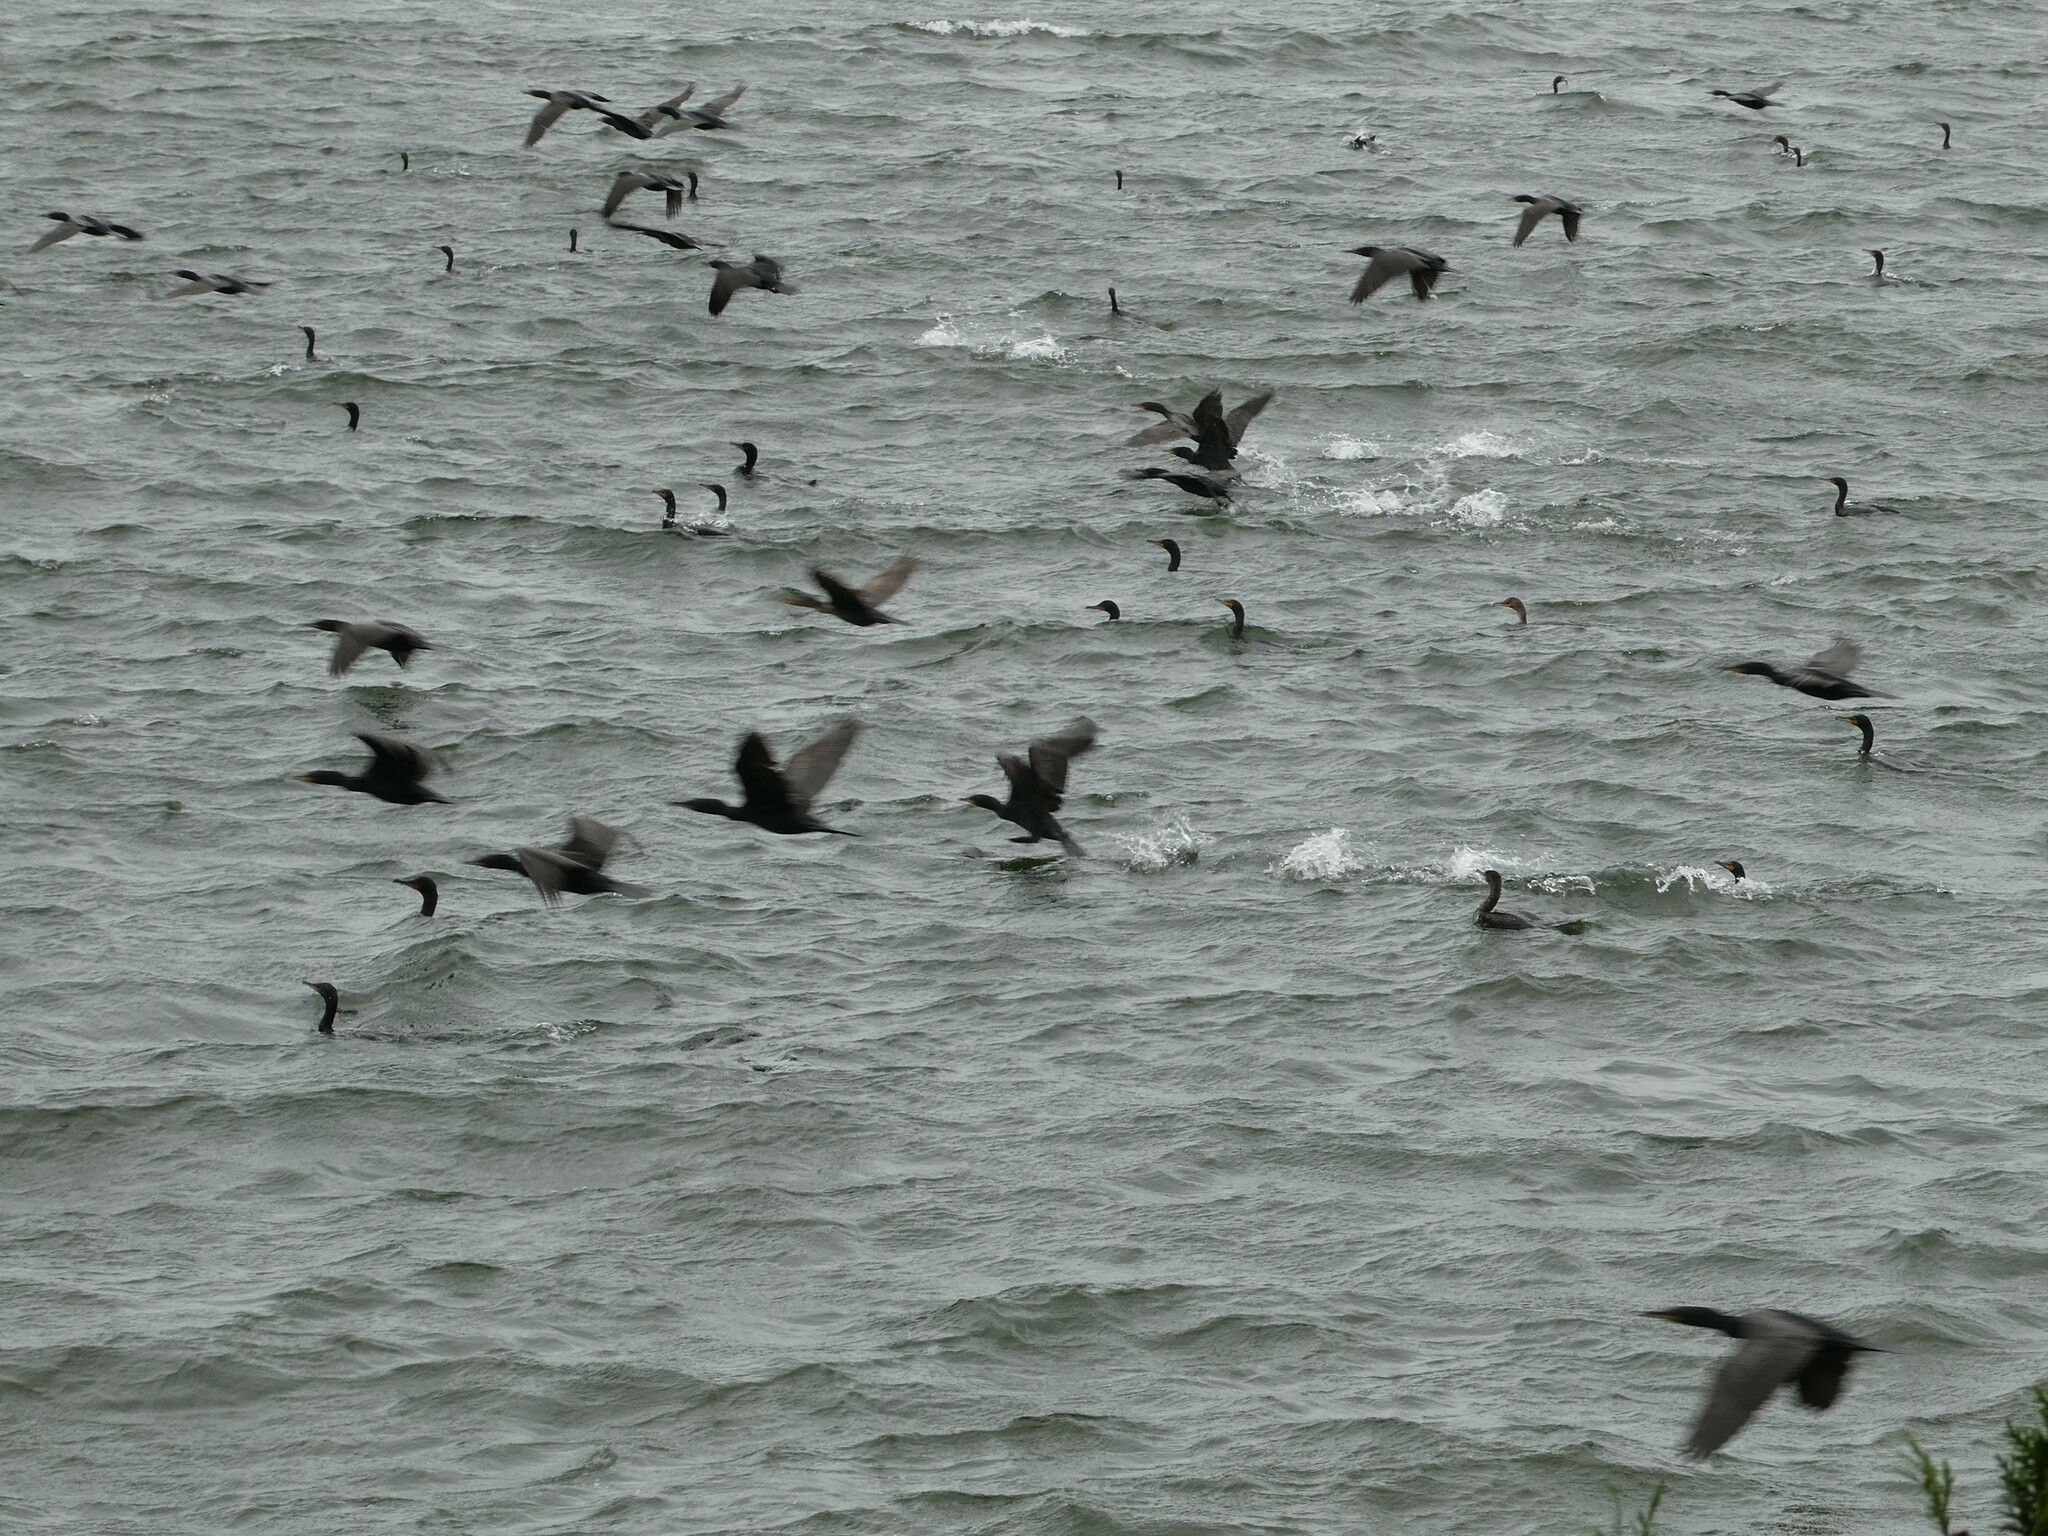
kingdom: Animalia
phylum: Chordata
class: Aves
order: Suliformes
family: Phalacrocoracidae
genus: Phalacrocorax
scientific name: Phalacrocorax auritus
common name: Double-crested cormorant
